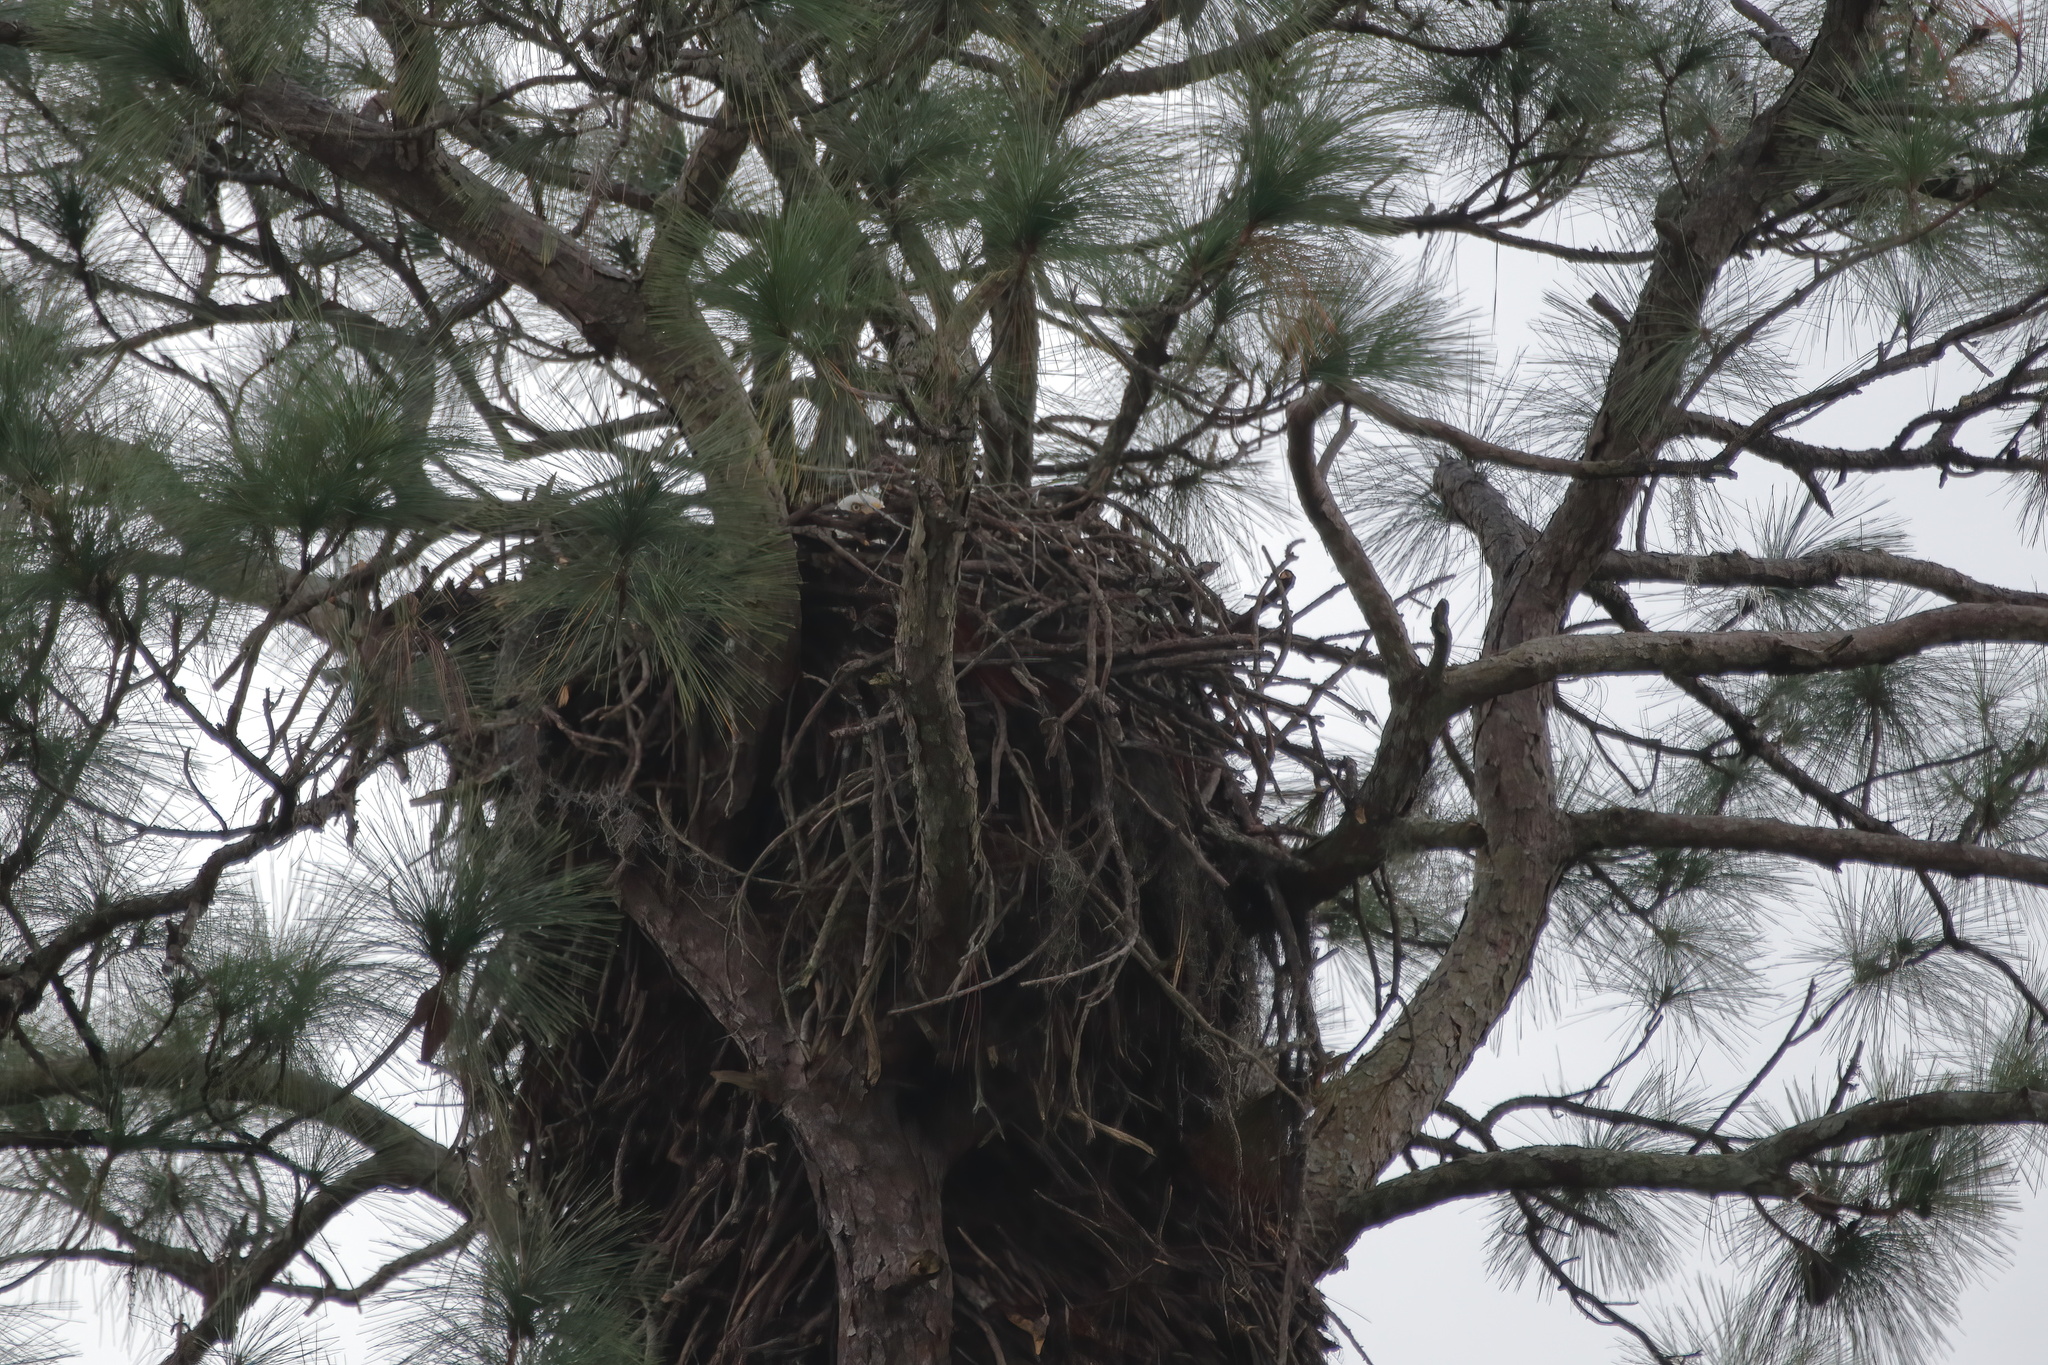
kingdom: Animalia
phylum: Chordata
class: Aves
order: Accipitriformes
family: Accipitridae
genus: Haliaeetus
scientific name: Haliaeetus leucocephalus
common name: Bald eagle
